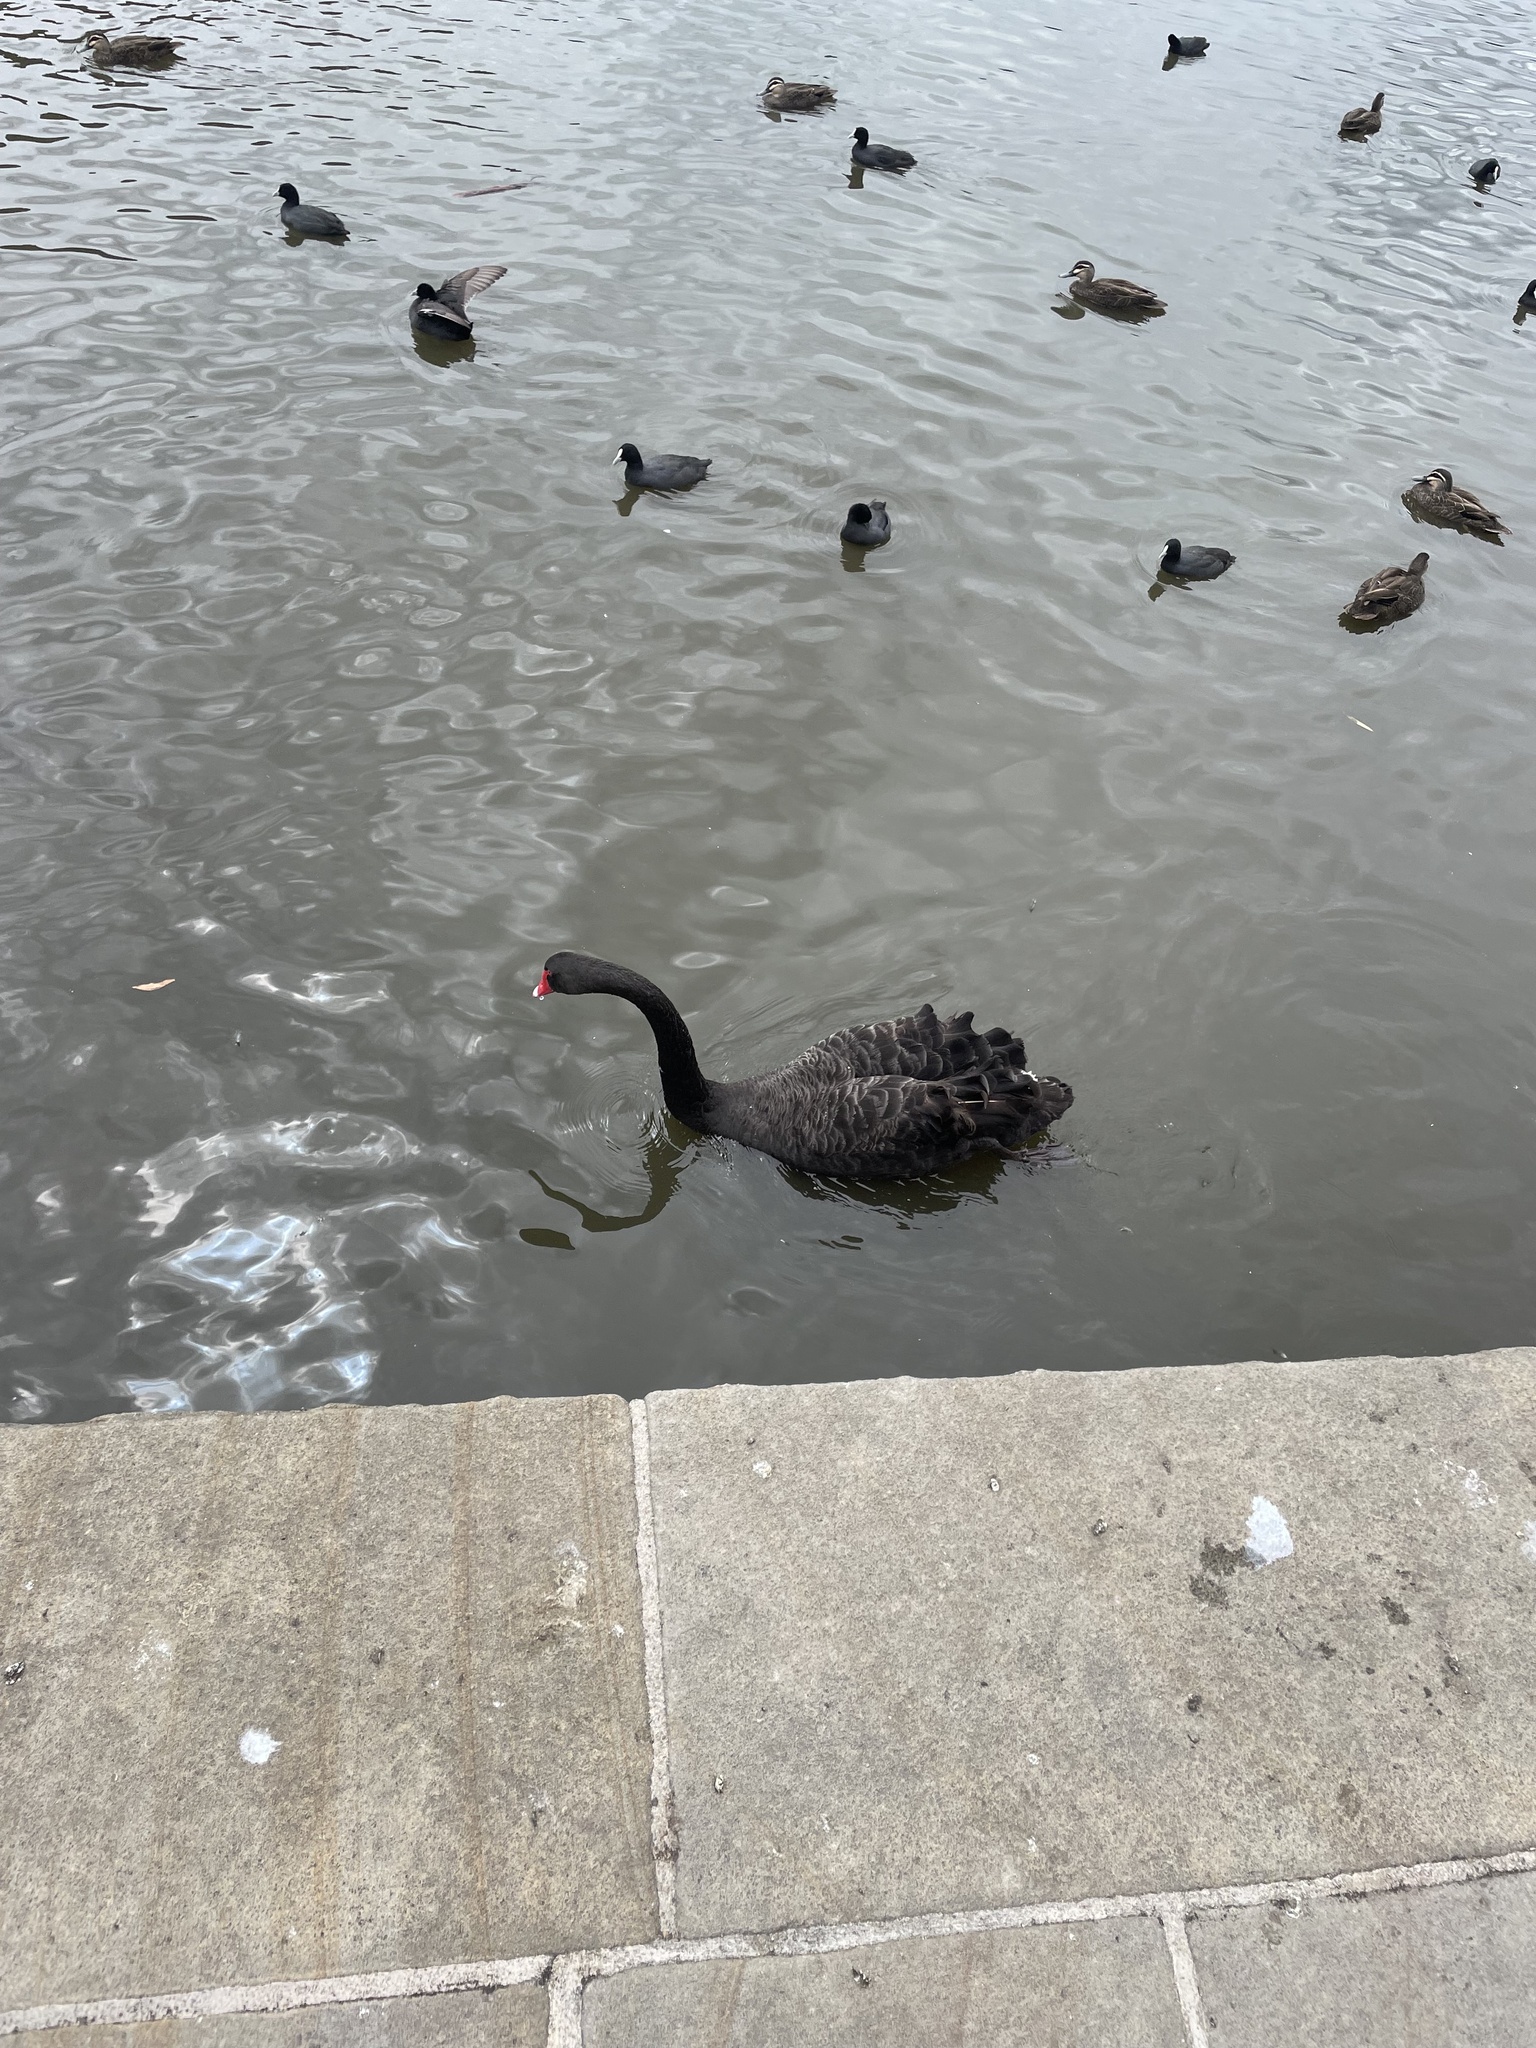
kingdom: Animalia
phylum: Chordata
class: Aves
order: Anseriformes
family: Anatidae
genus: Cygnus
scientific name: Cygnus atratus
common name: Black swan
